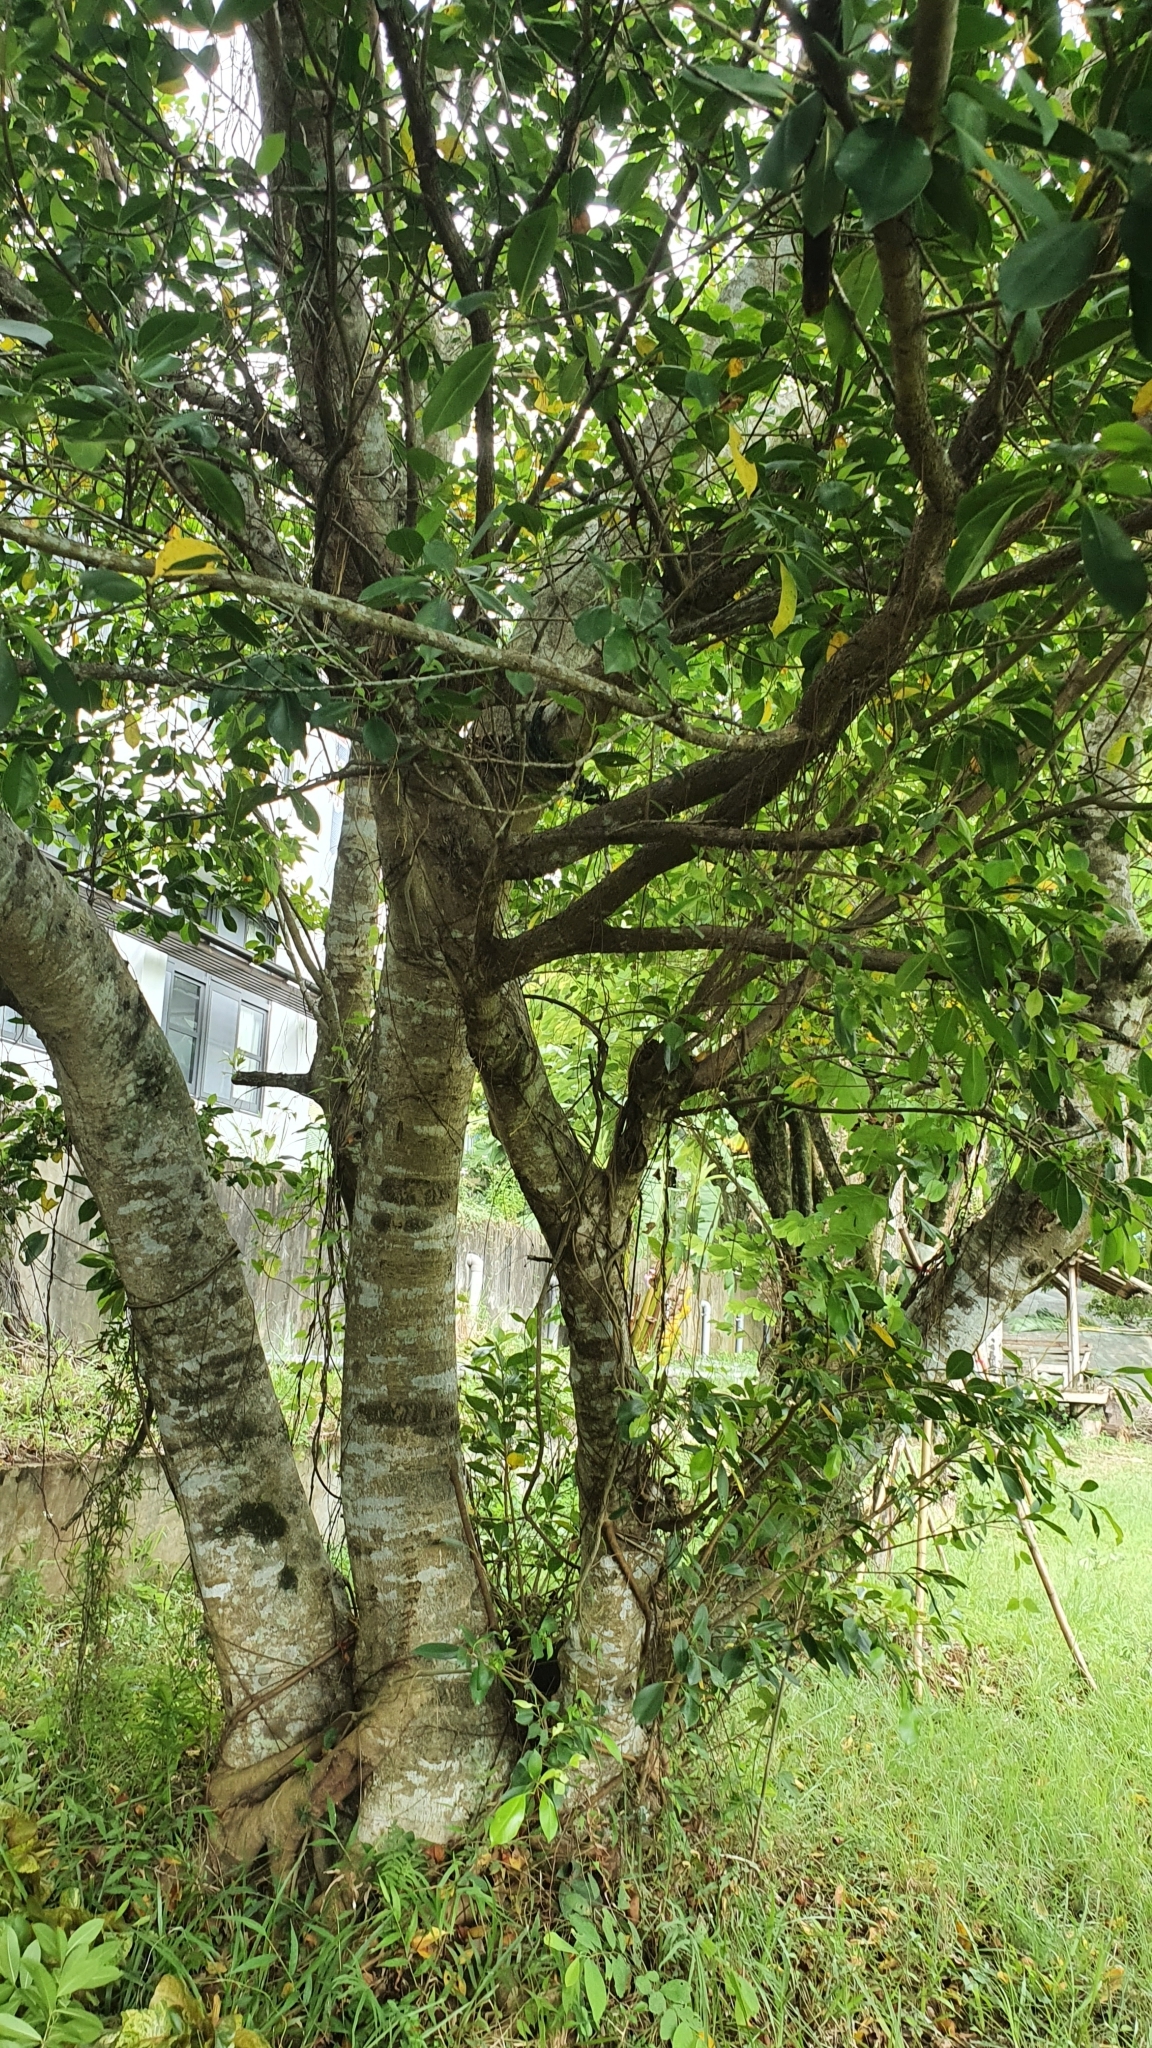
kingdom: Plantae
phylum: Tracheophyta
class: Magnoliopsida
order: Rosales
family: Moraceae
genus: Ficus
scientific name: Ficus microcarpa
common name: Chinese banyan
